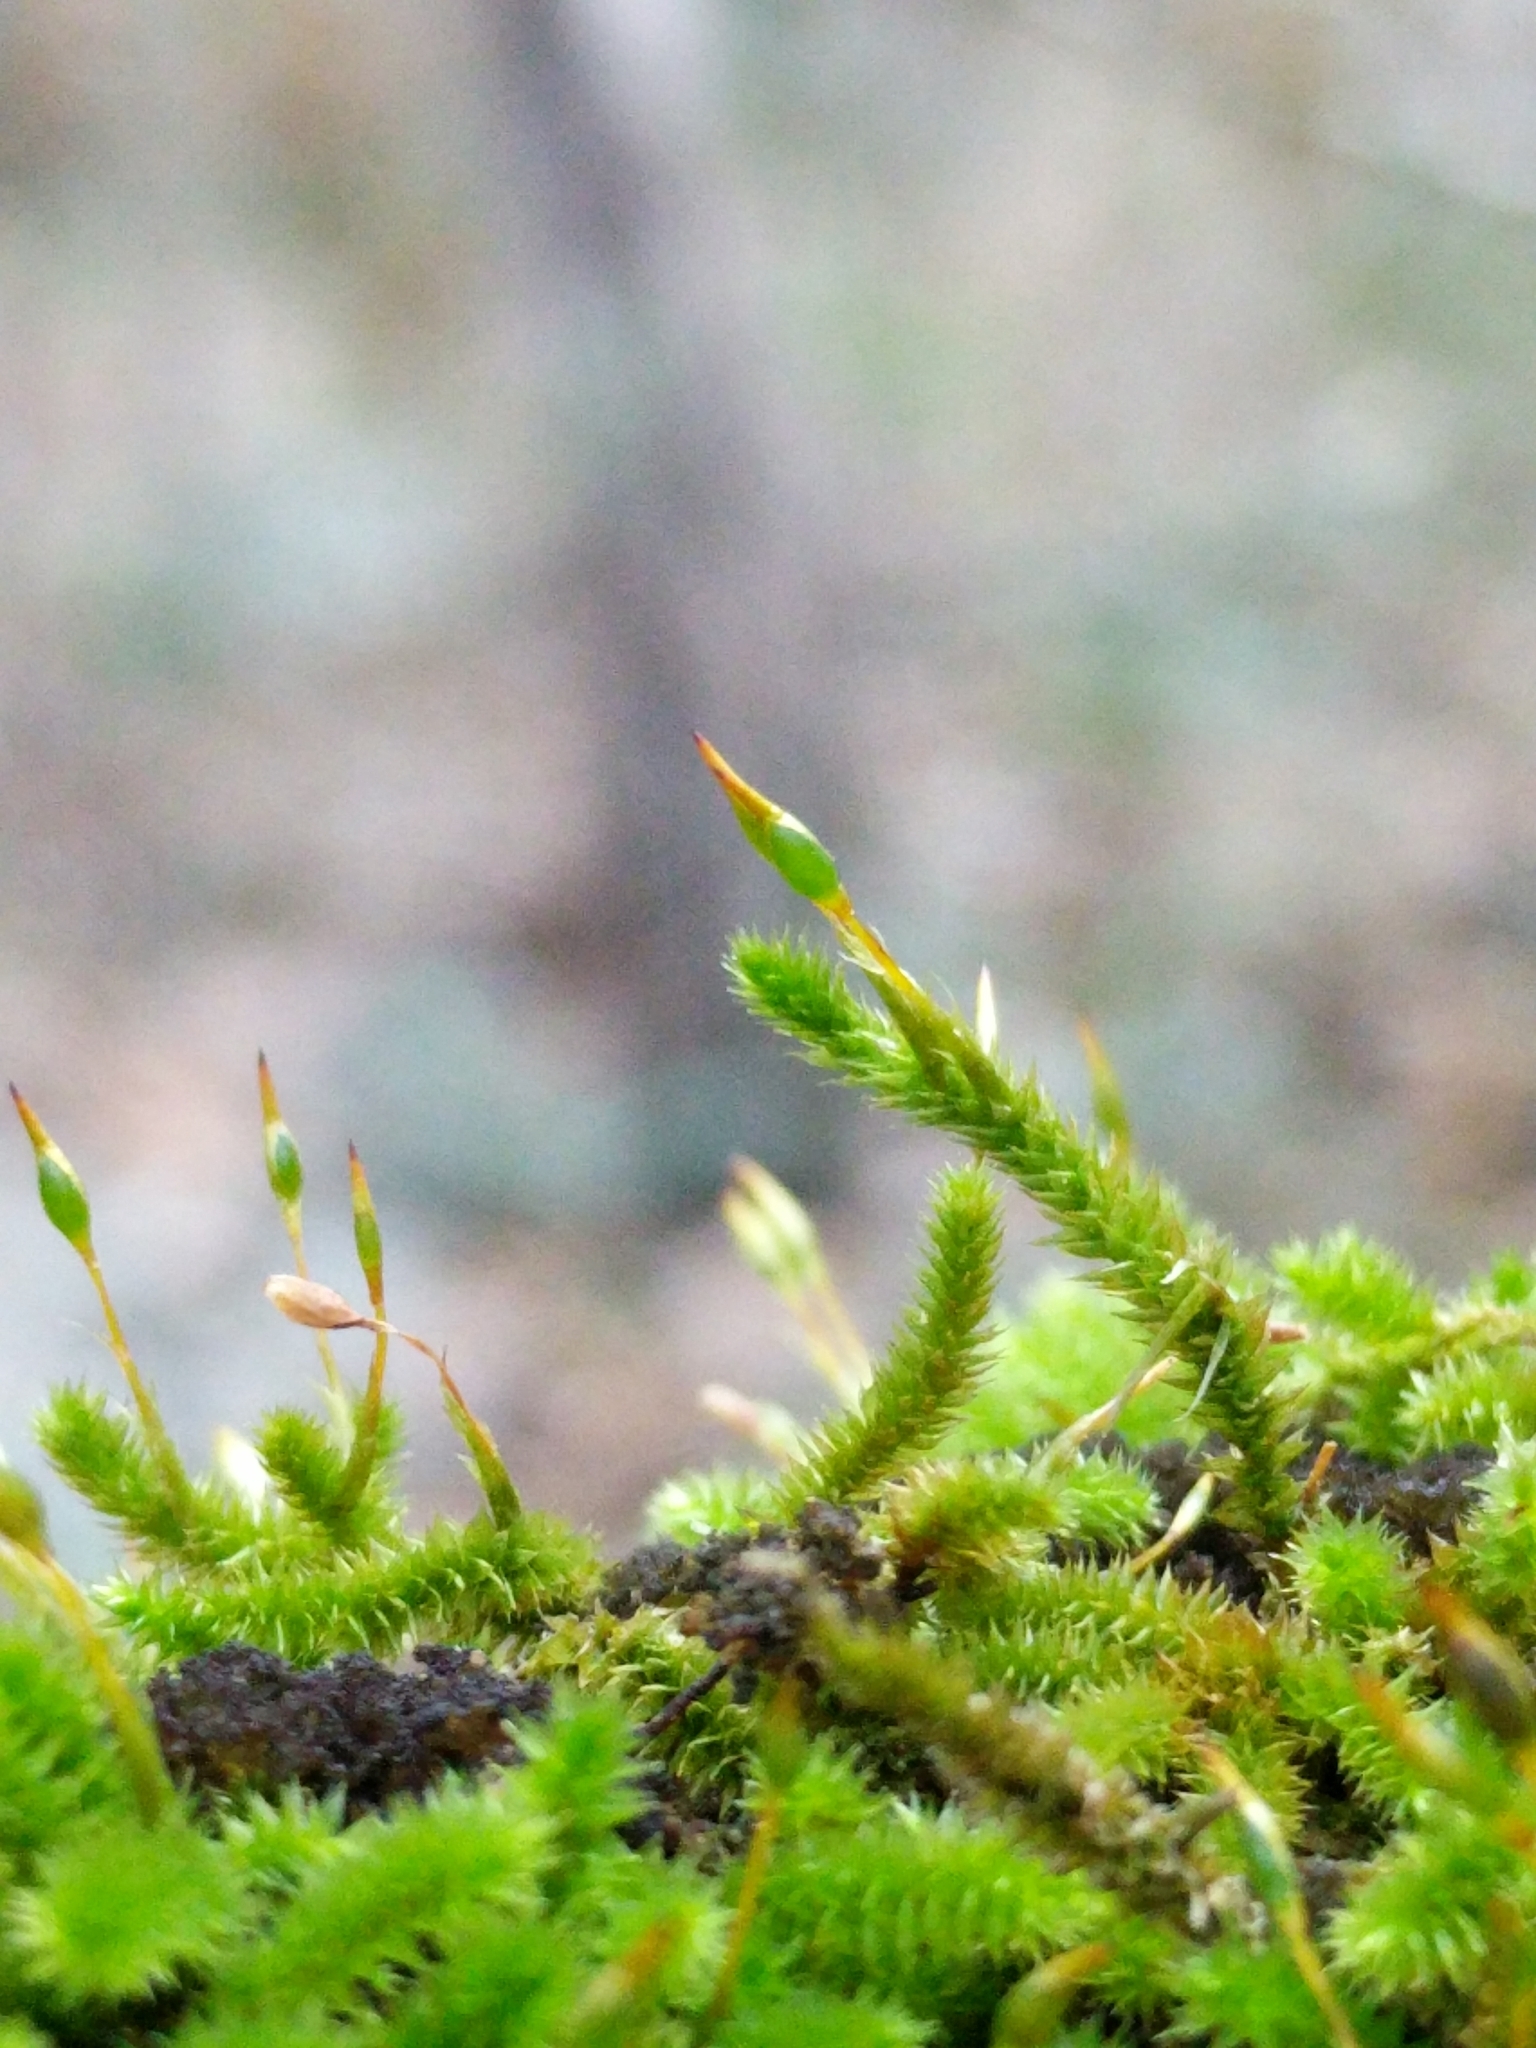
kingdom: Plantae
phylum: Bryophyta
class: Bryopsida
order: Hypnales
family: Leucodontaceae
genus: Leucodon
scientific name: Leucodon julaceus
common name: Smooth hook moss
